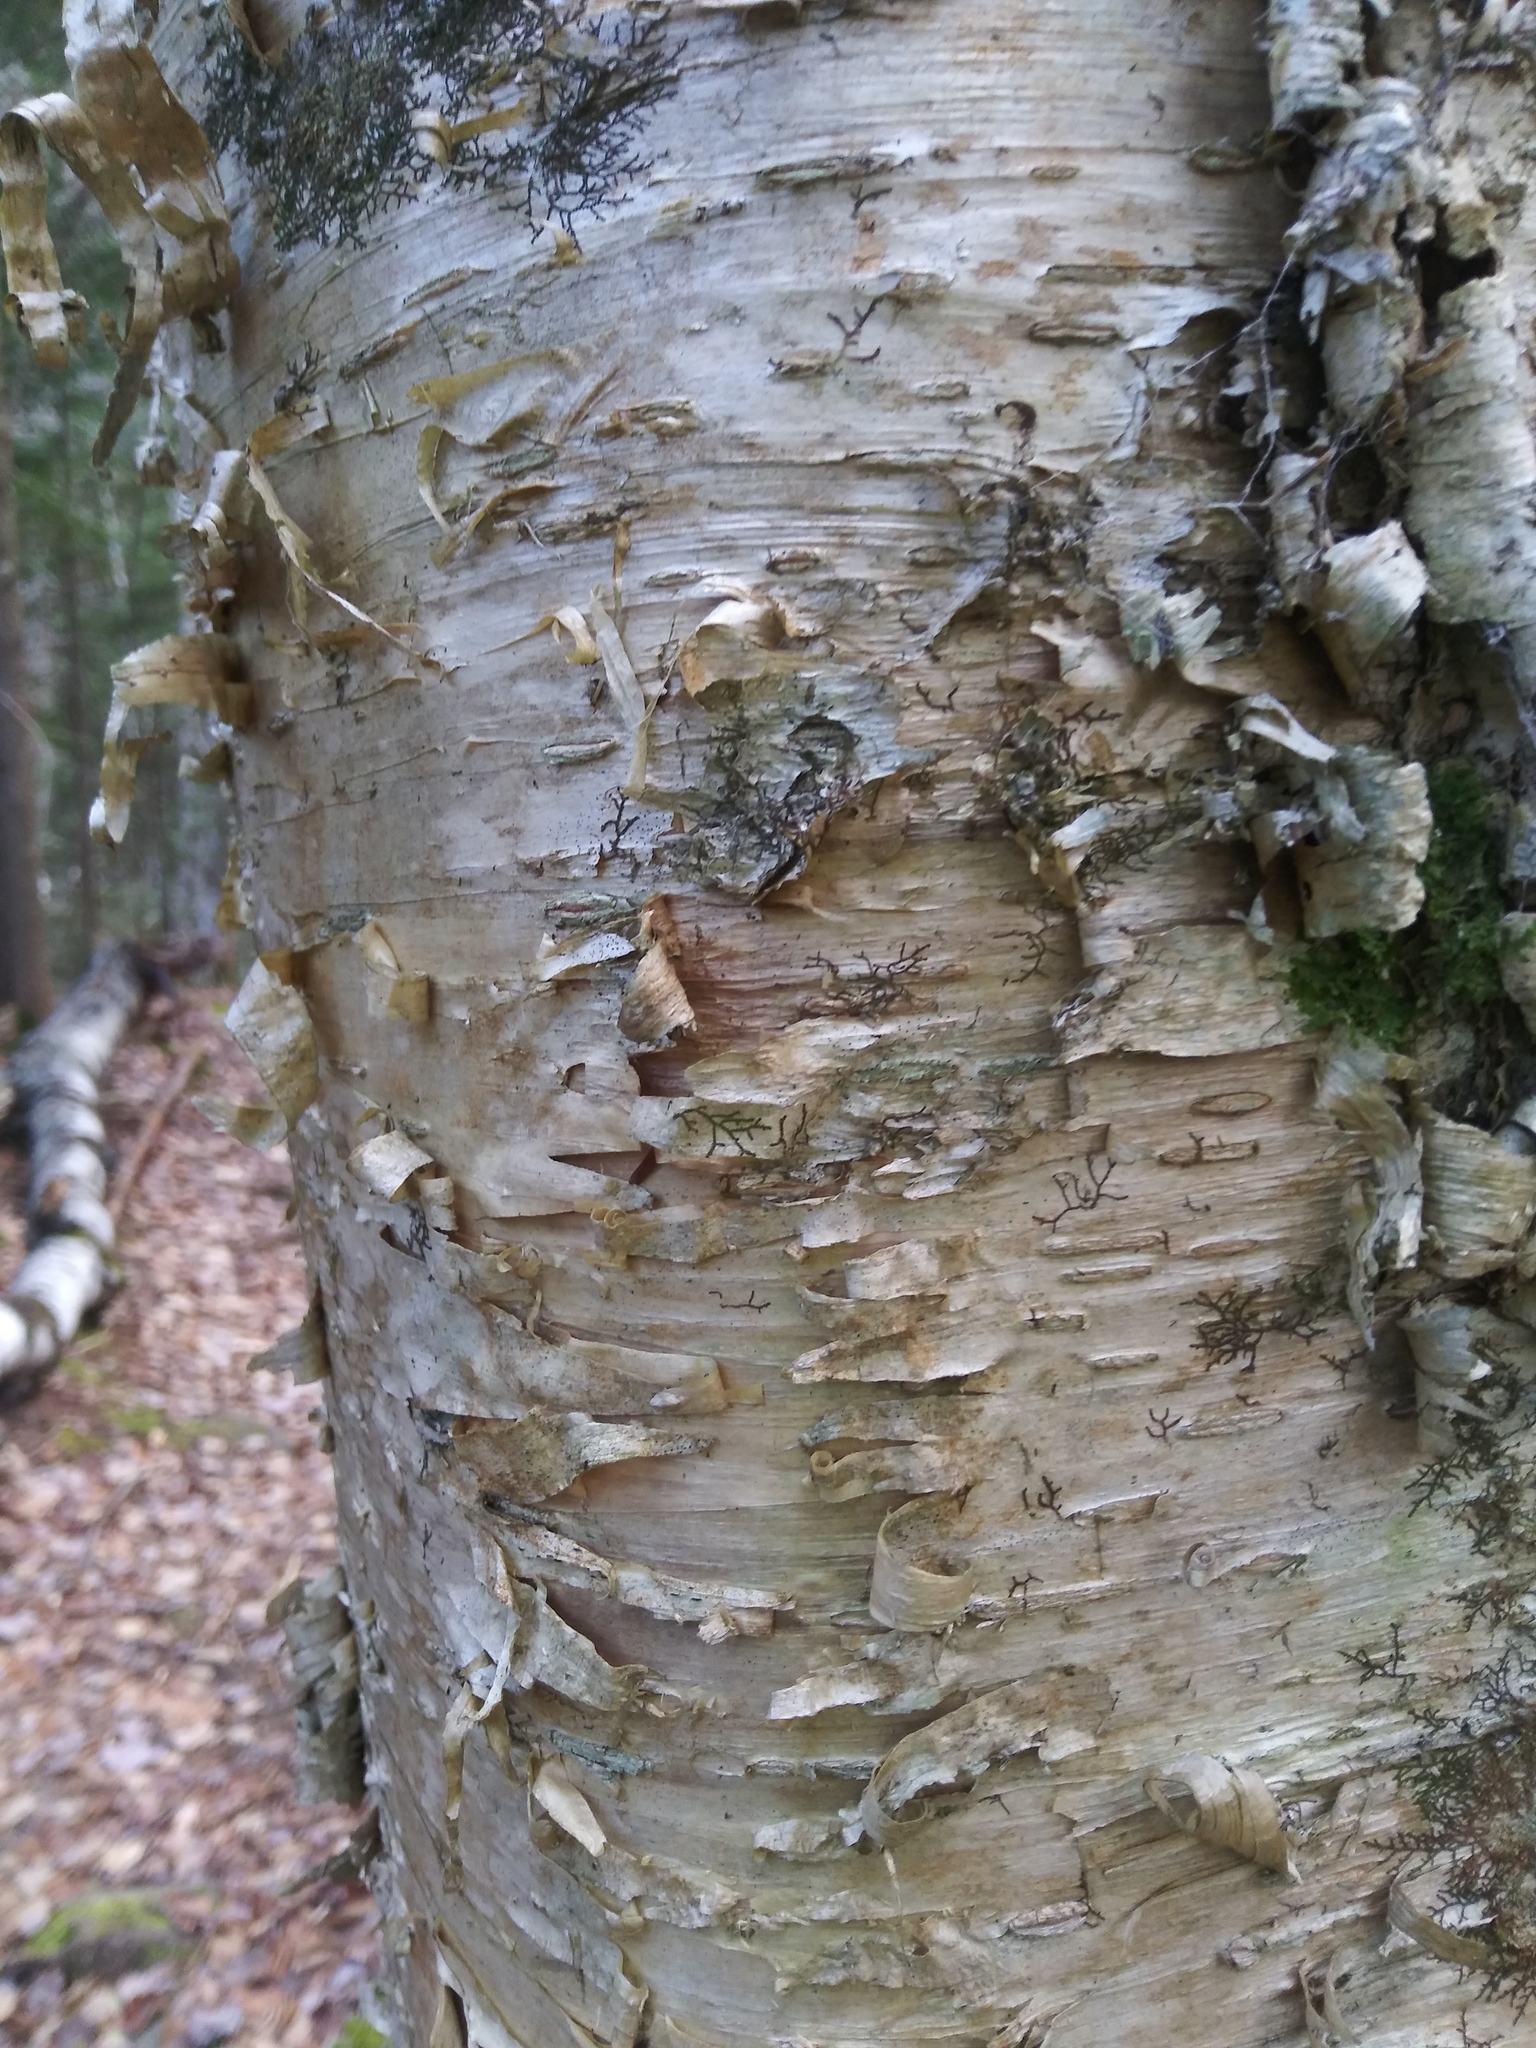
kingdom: Plantae
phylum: Tracheophyta
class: Magnoliopsida
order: Fagales
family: Betulaceae
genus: Betula
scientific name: Betula alleghaniensis
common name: Yellow birch
